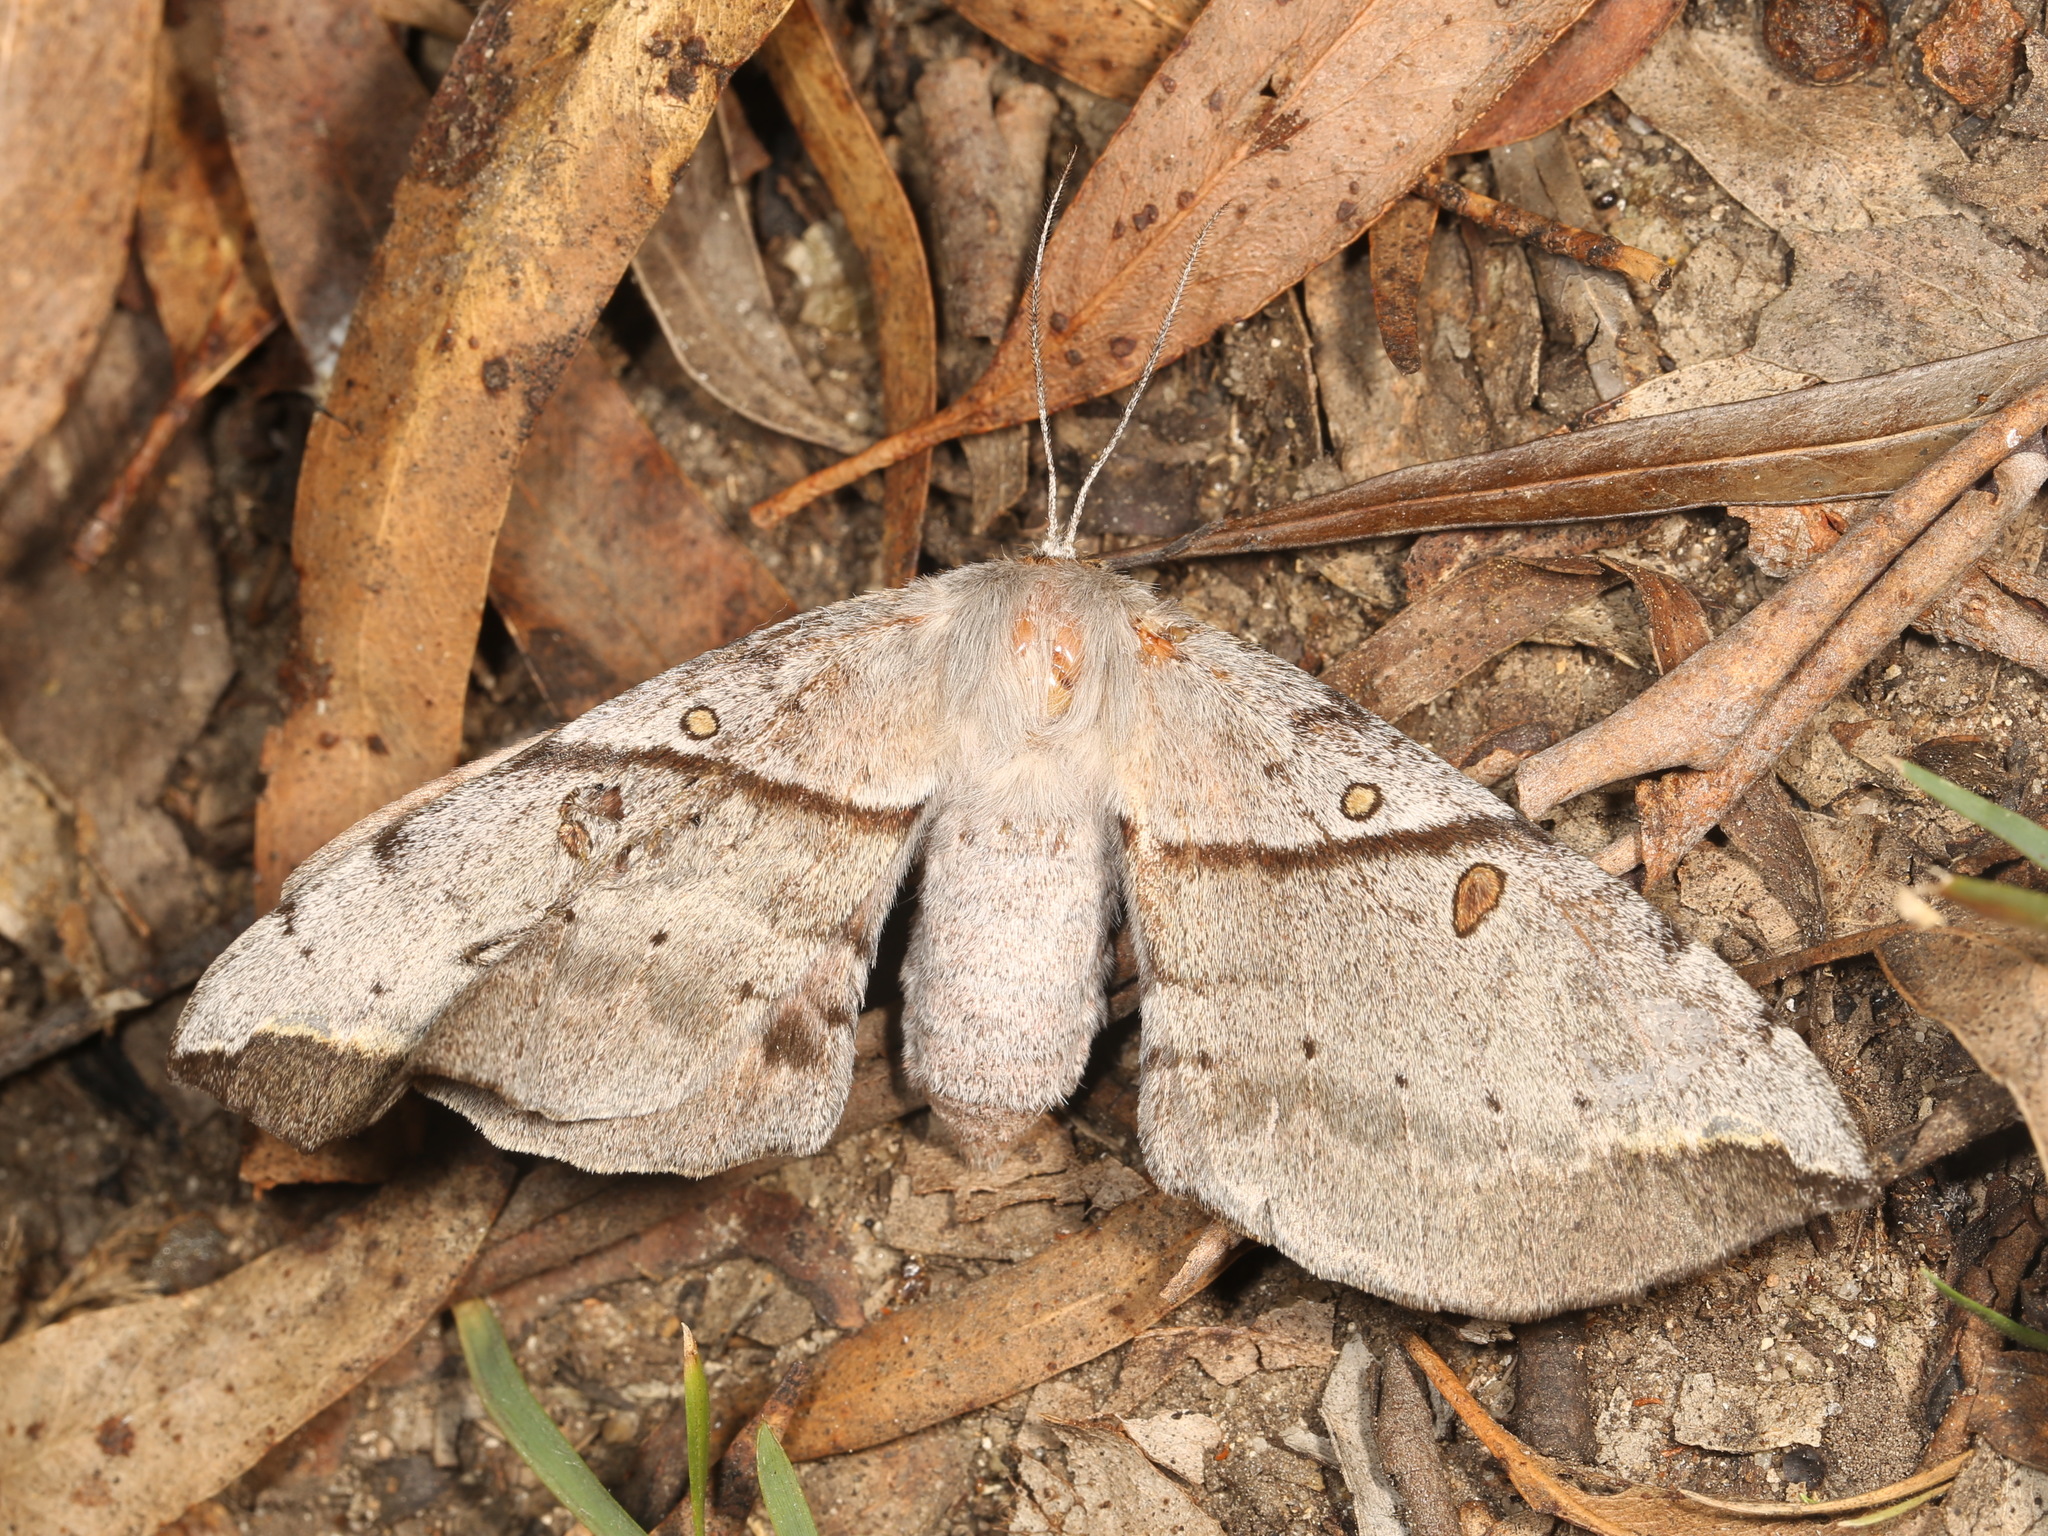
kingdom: Animalia
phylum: Arthropoda
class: Insecta
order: Lepidoptera
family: Anthelidae
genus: Chelepteryx
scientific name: Chelepteryx chalepteryx
